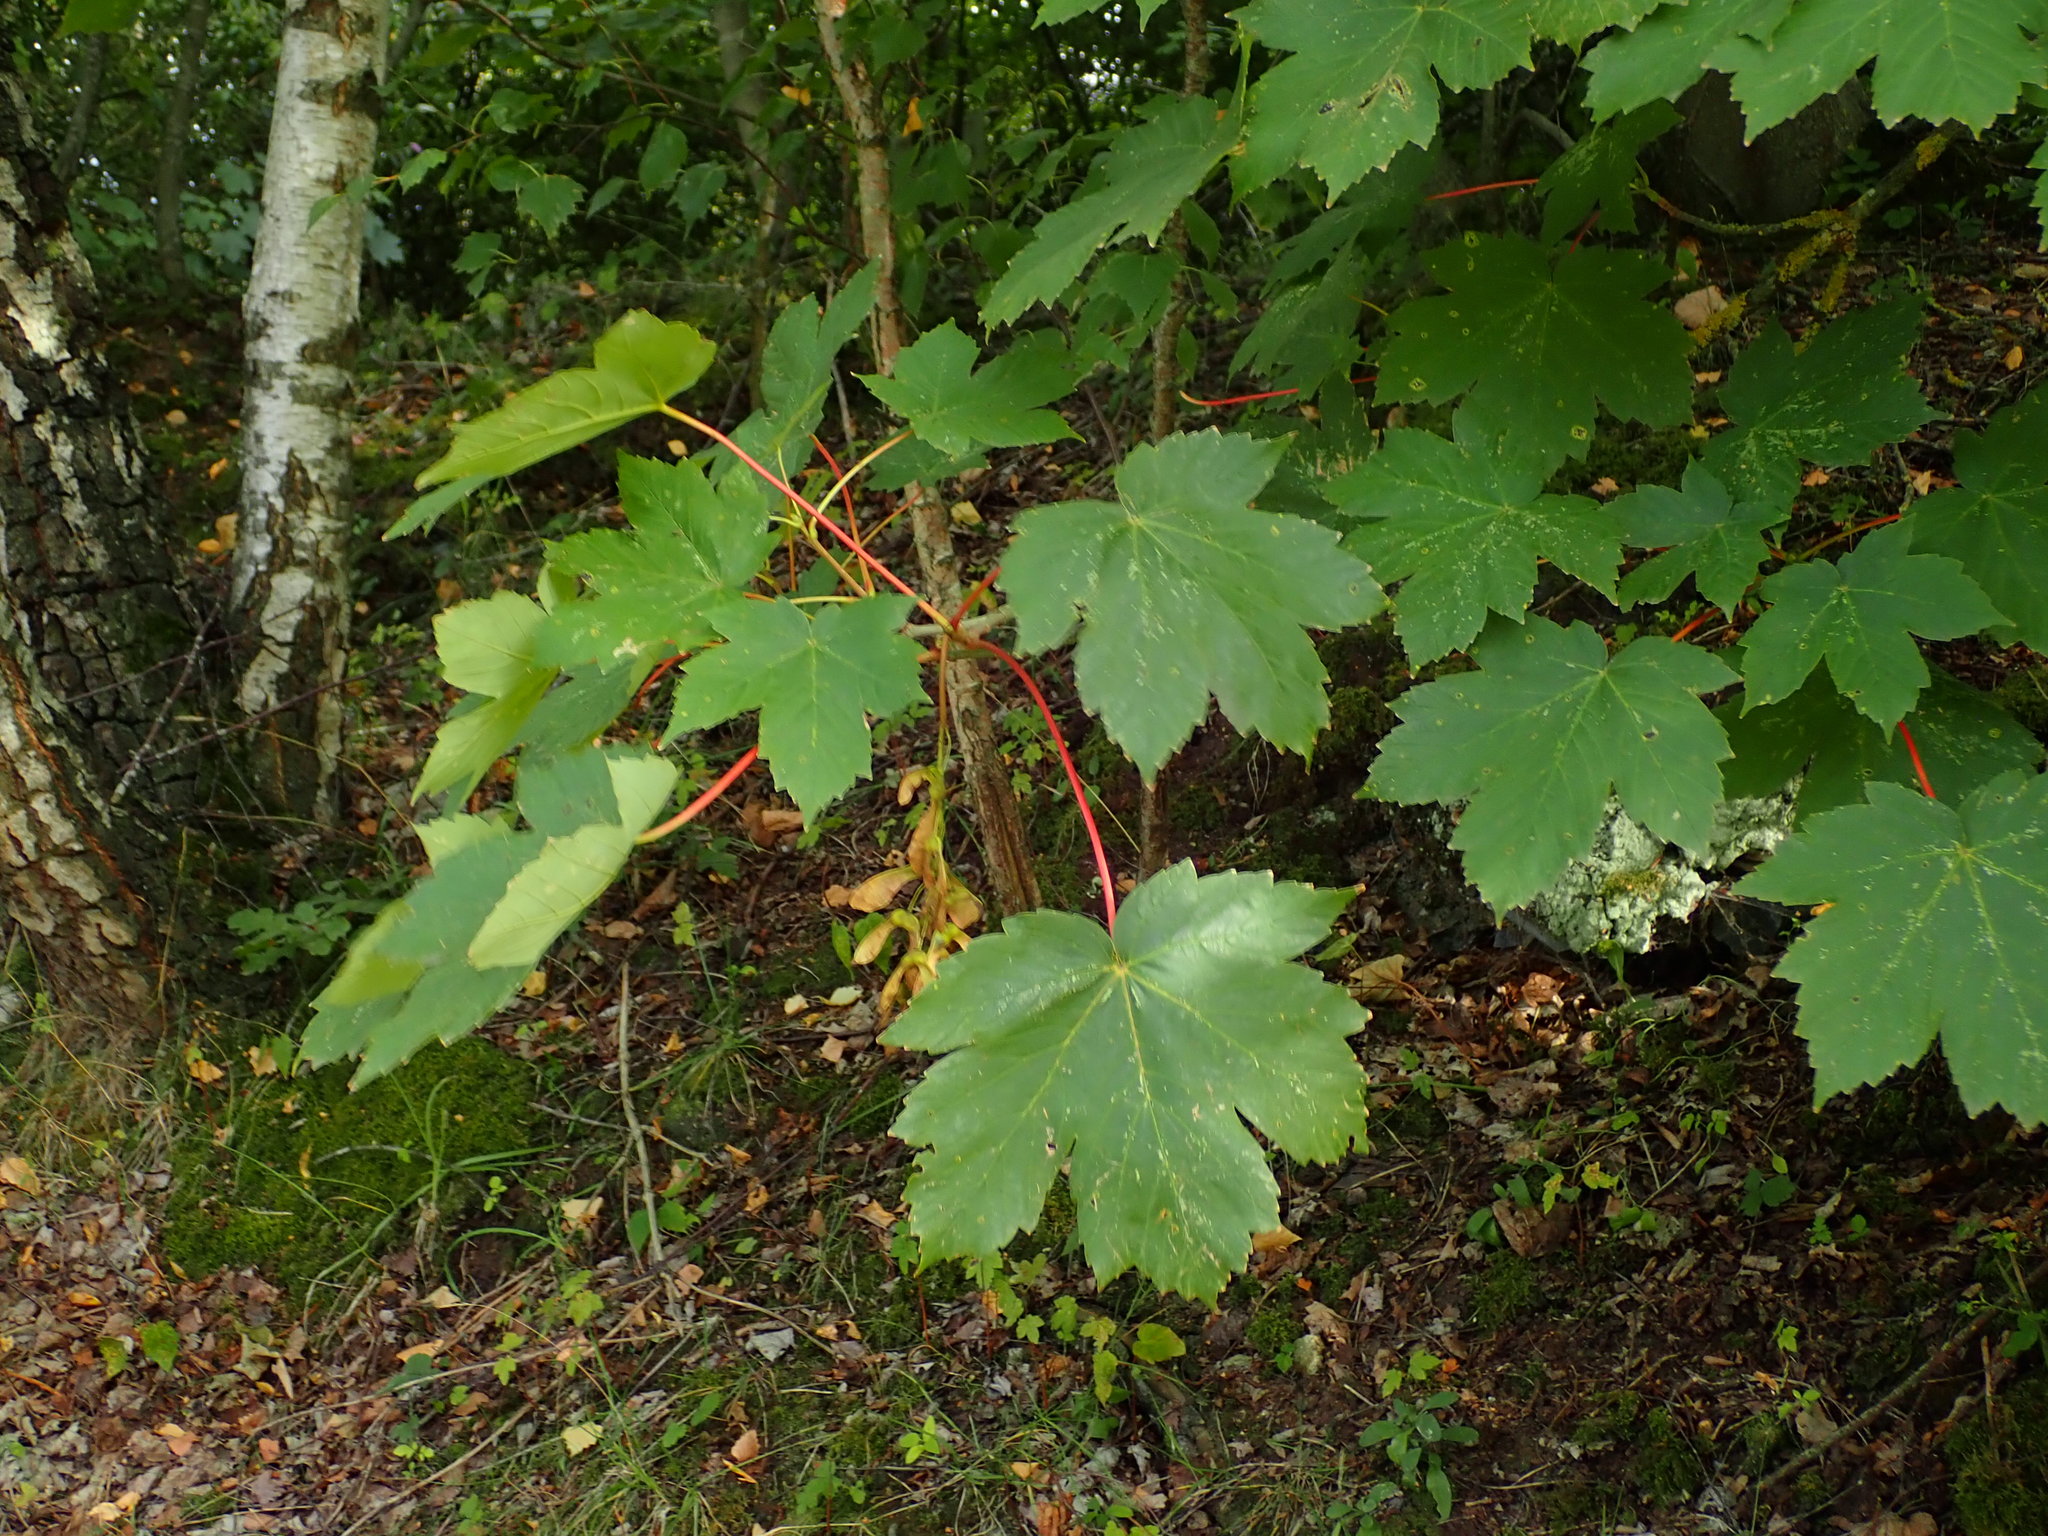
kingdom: Plantae
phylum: Tracheophyta
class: Magnoliopsida
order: Sapindales
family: Sapindaceae
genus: Acer
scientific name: Acer pseudoplatanus
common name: Sycamore
